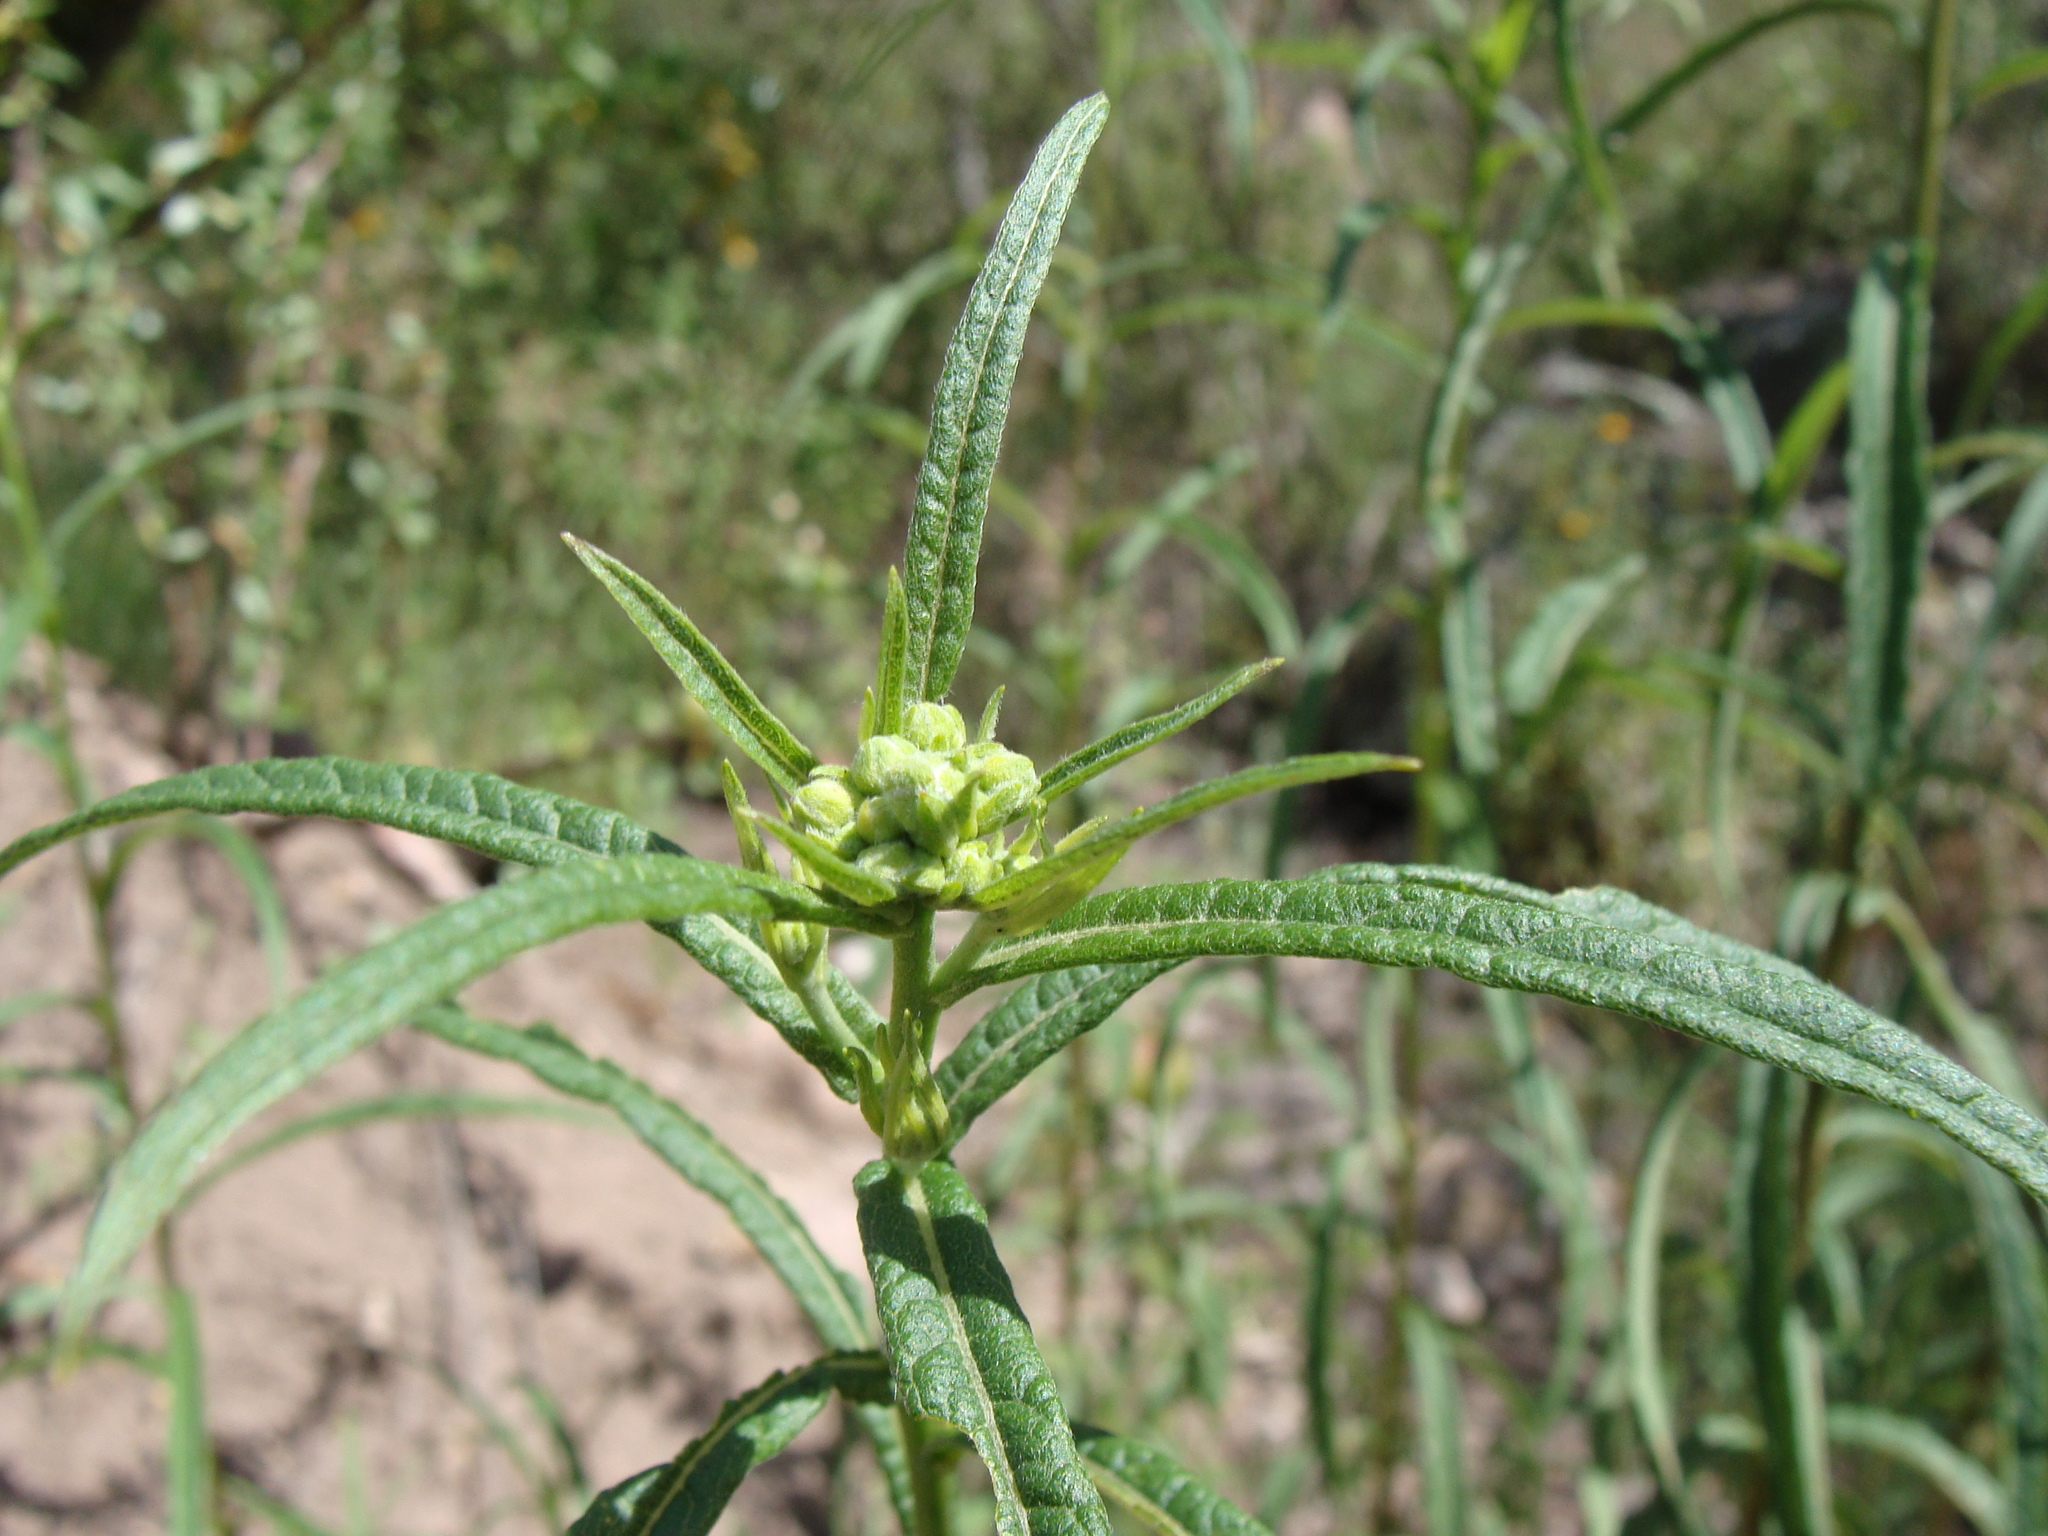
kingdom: Plantae
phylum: Tracheophyta
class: Magnoliopsida
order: Asterales
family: Asteraceae
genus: Verbesina
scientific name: Verbesina virgata
